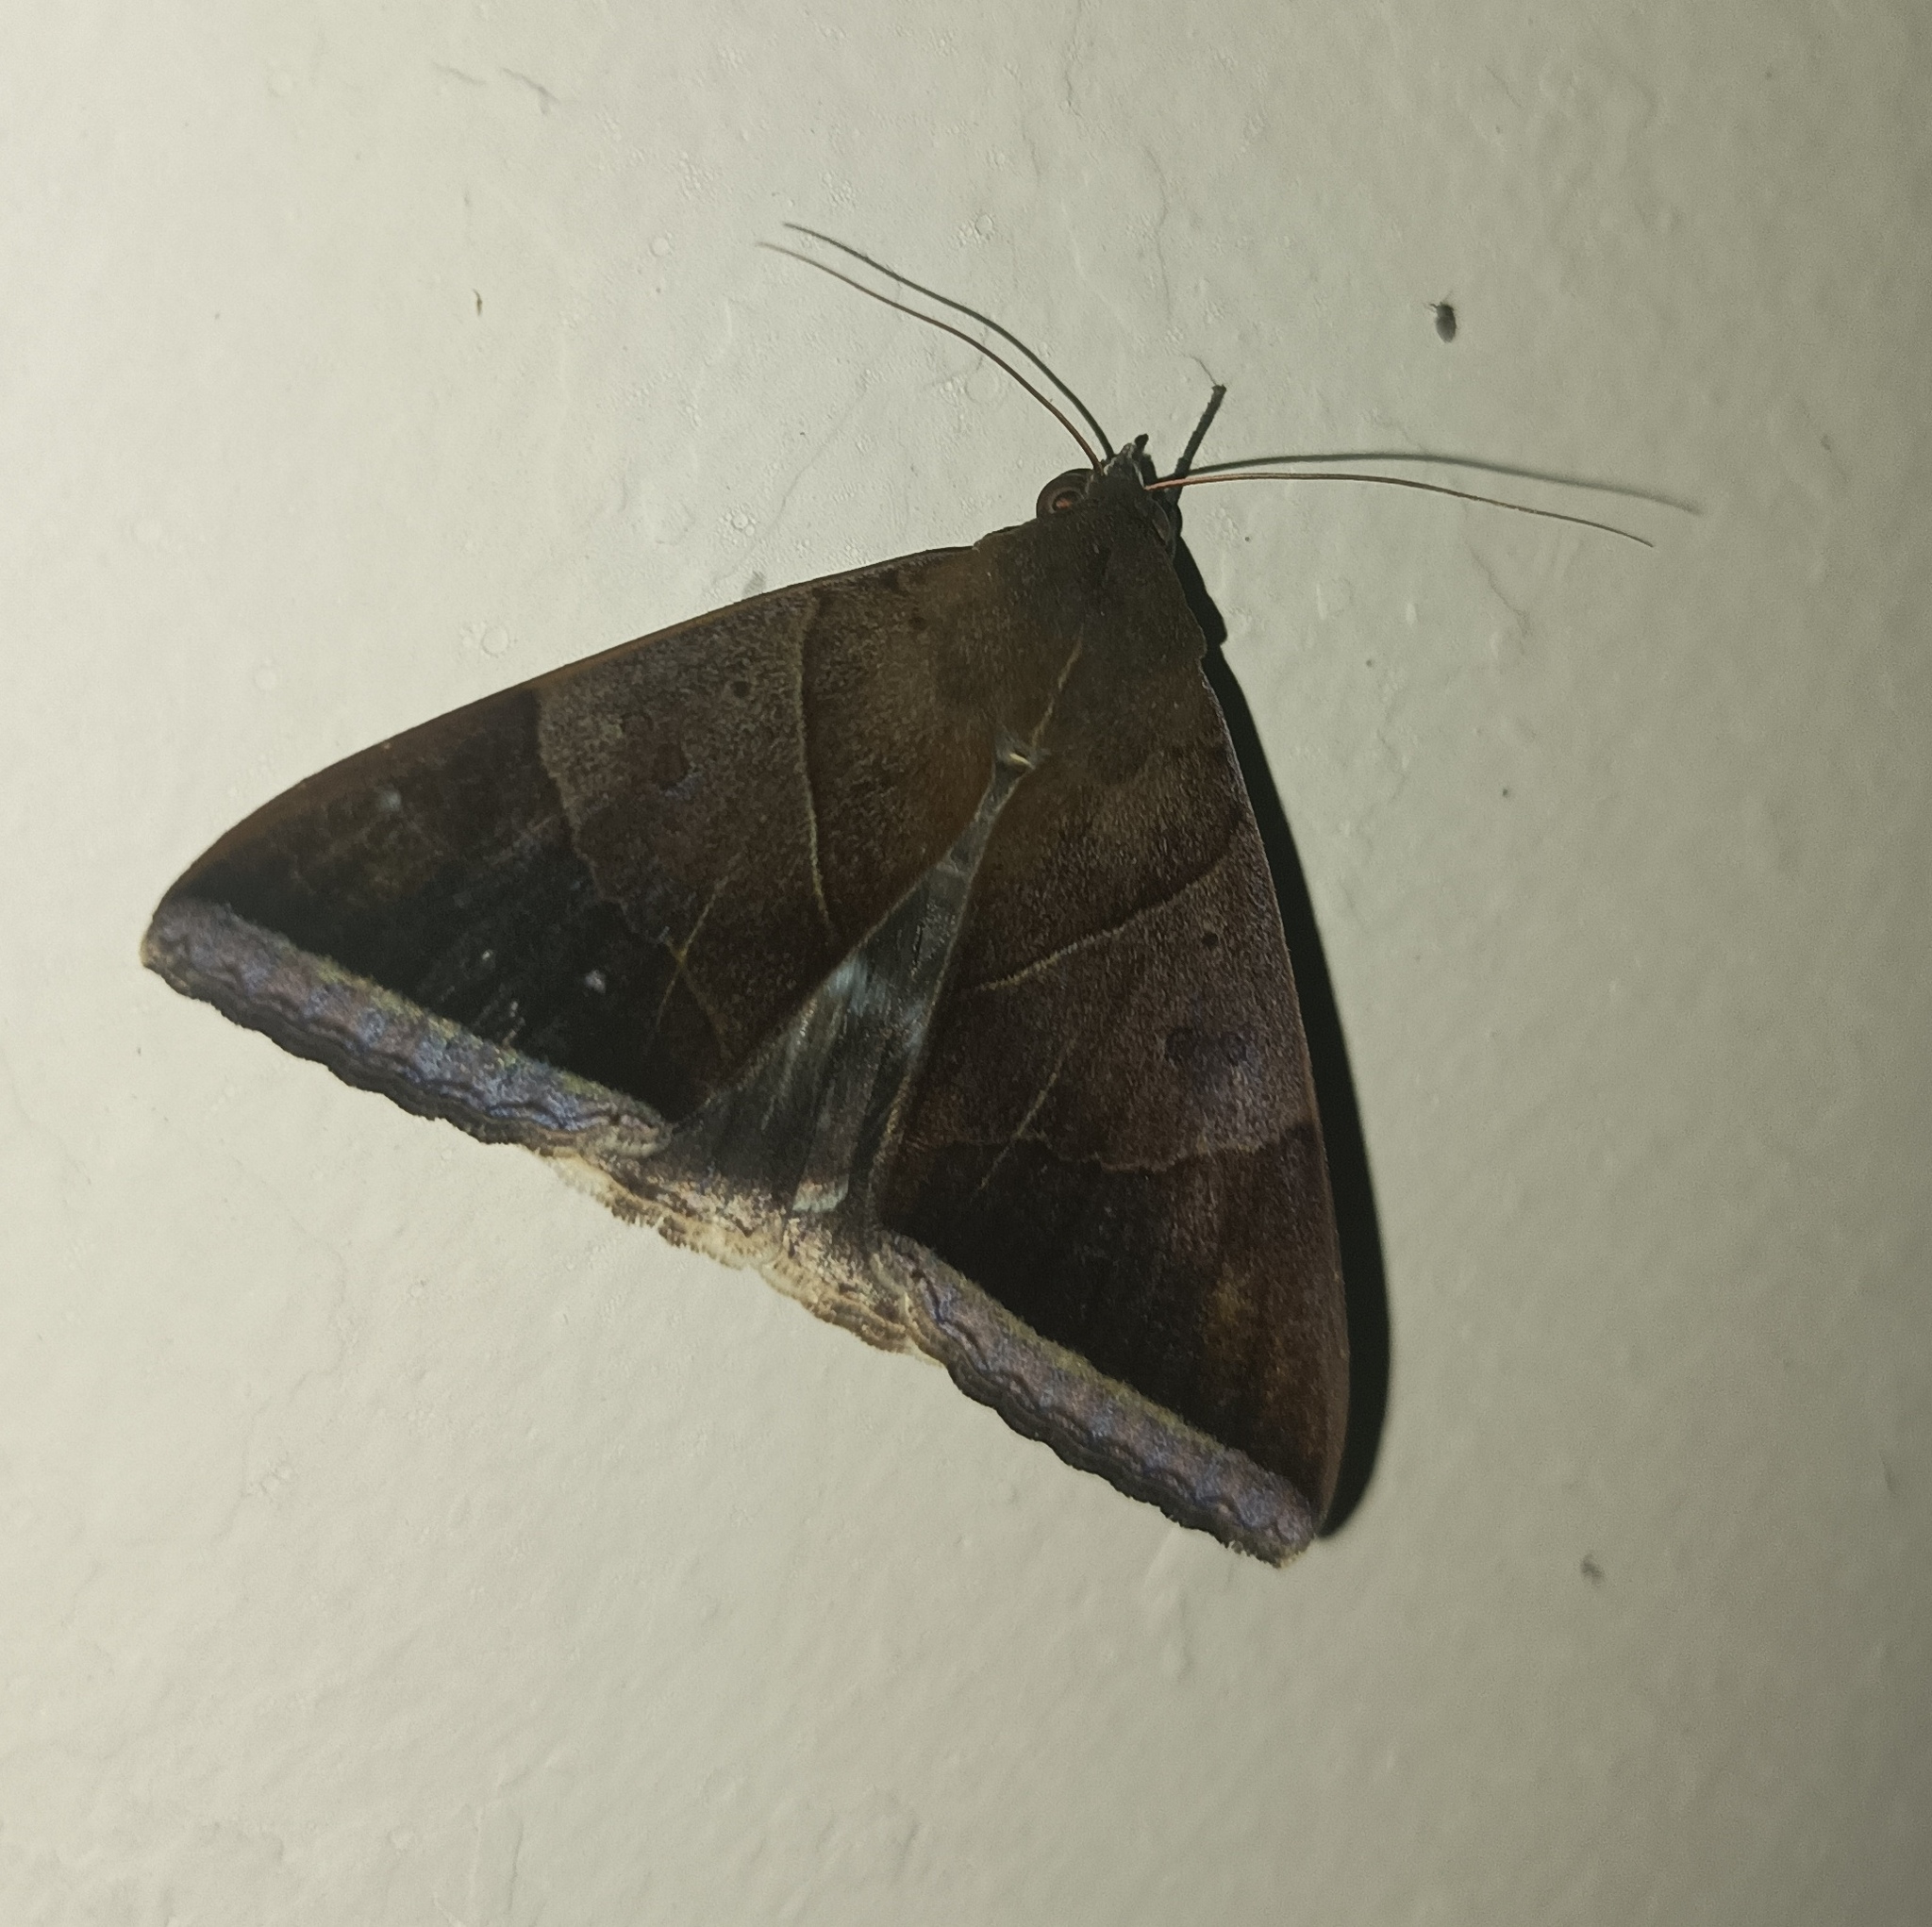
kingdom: Animalia
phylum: Arthropoda
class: Insecta
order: Lepidoptera
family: Erebidae
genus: Artena
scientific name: Artena dotata
